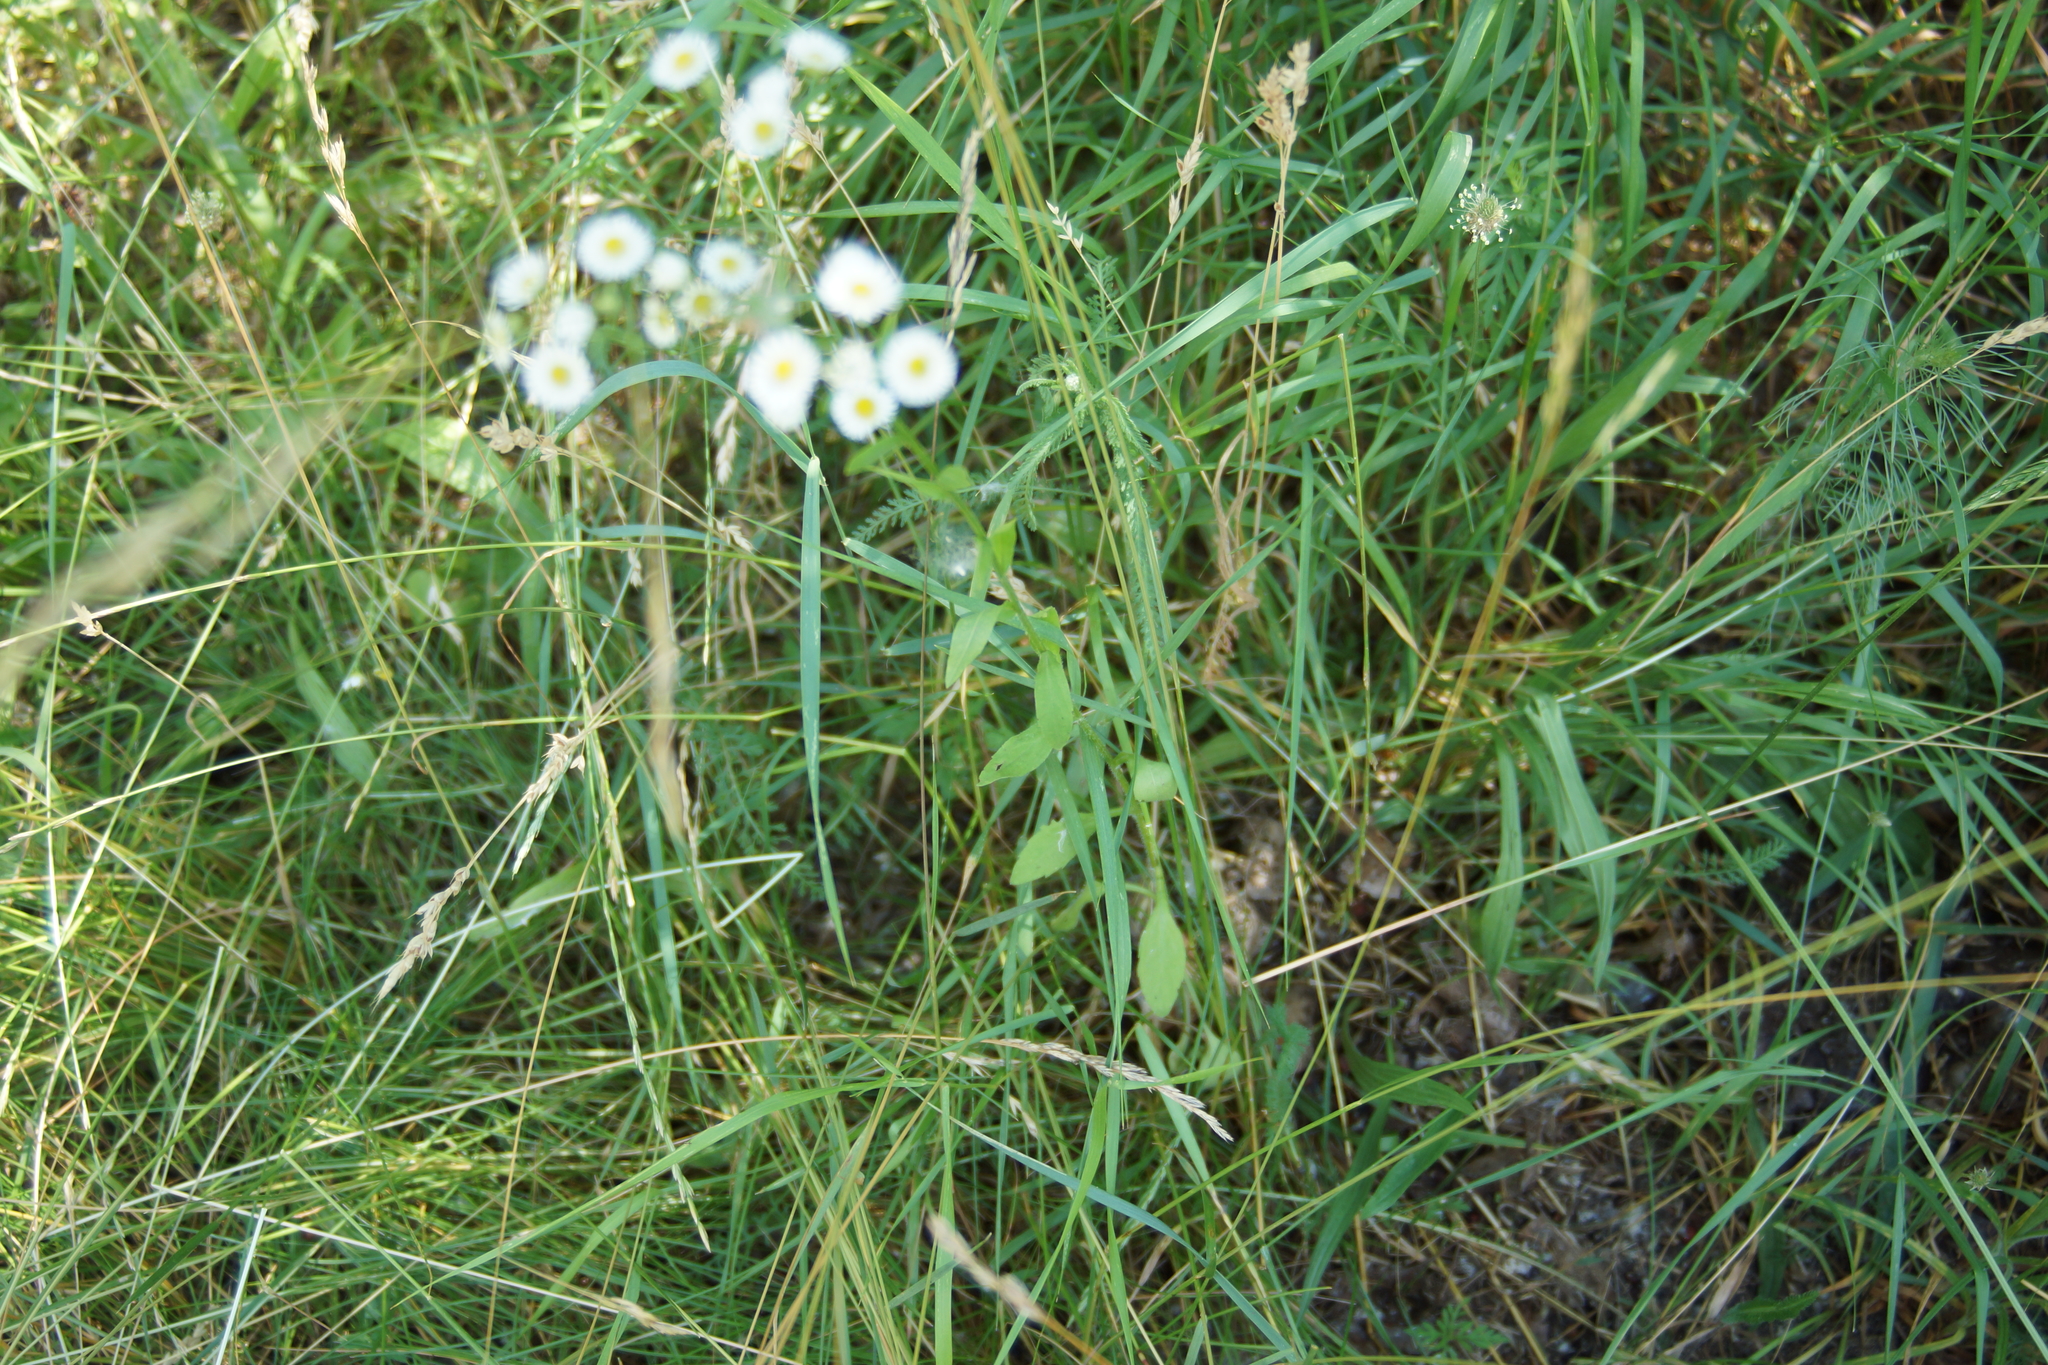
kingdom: Plantae
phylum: Tracheophyta
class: Magnoliopsida
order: Asterales
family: Asteraceae
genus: Erigeron
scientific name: Erigeron annuus
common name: Tall fleabane
